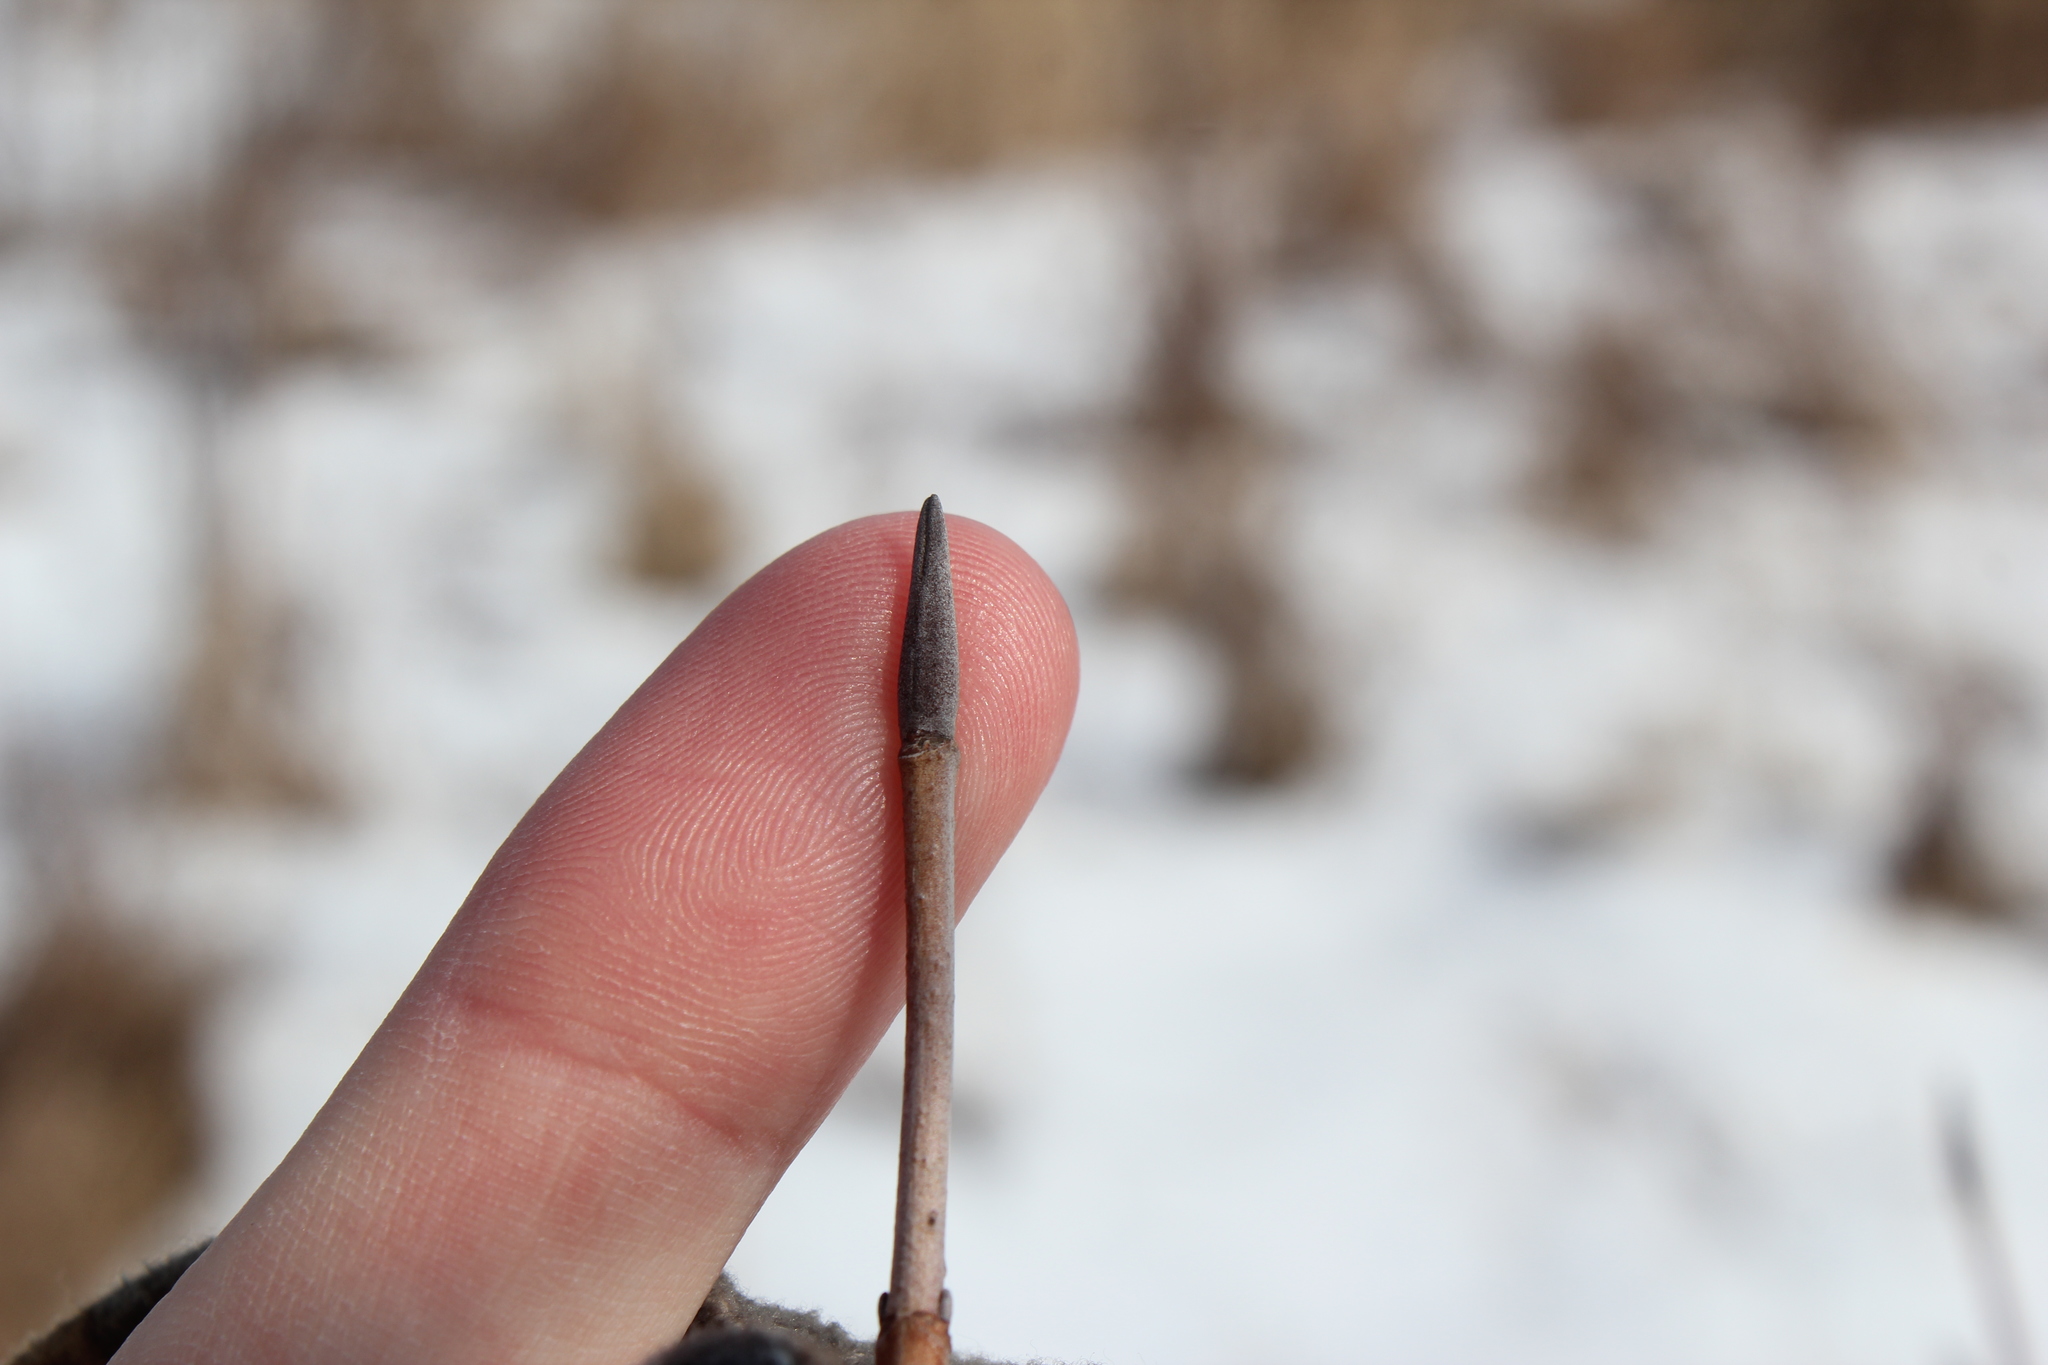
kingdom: Plantae
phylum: Tracheophyta
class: Magnoliopsida
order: Dipsacales
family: Viburnaceae
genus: Viburnum
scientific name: Viburnum lentago
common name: Black haw
